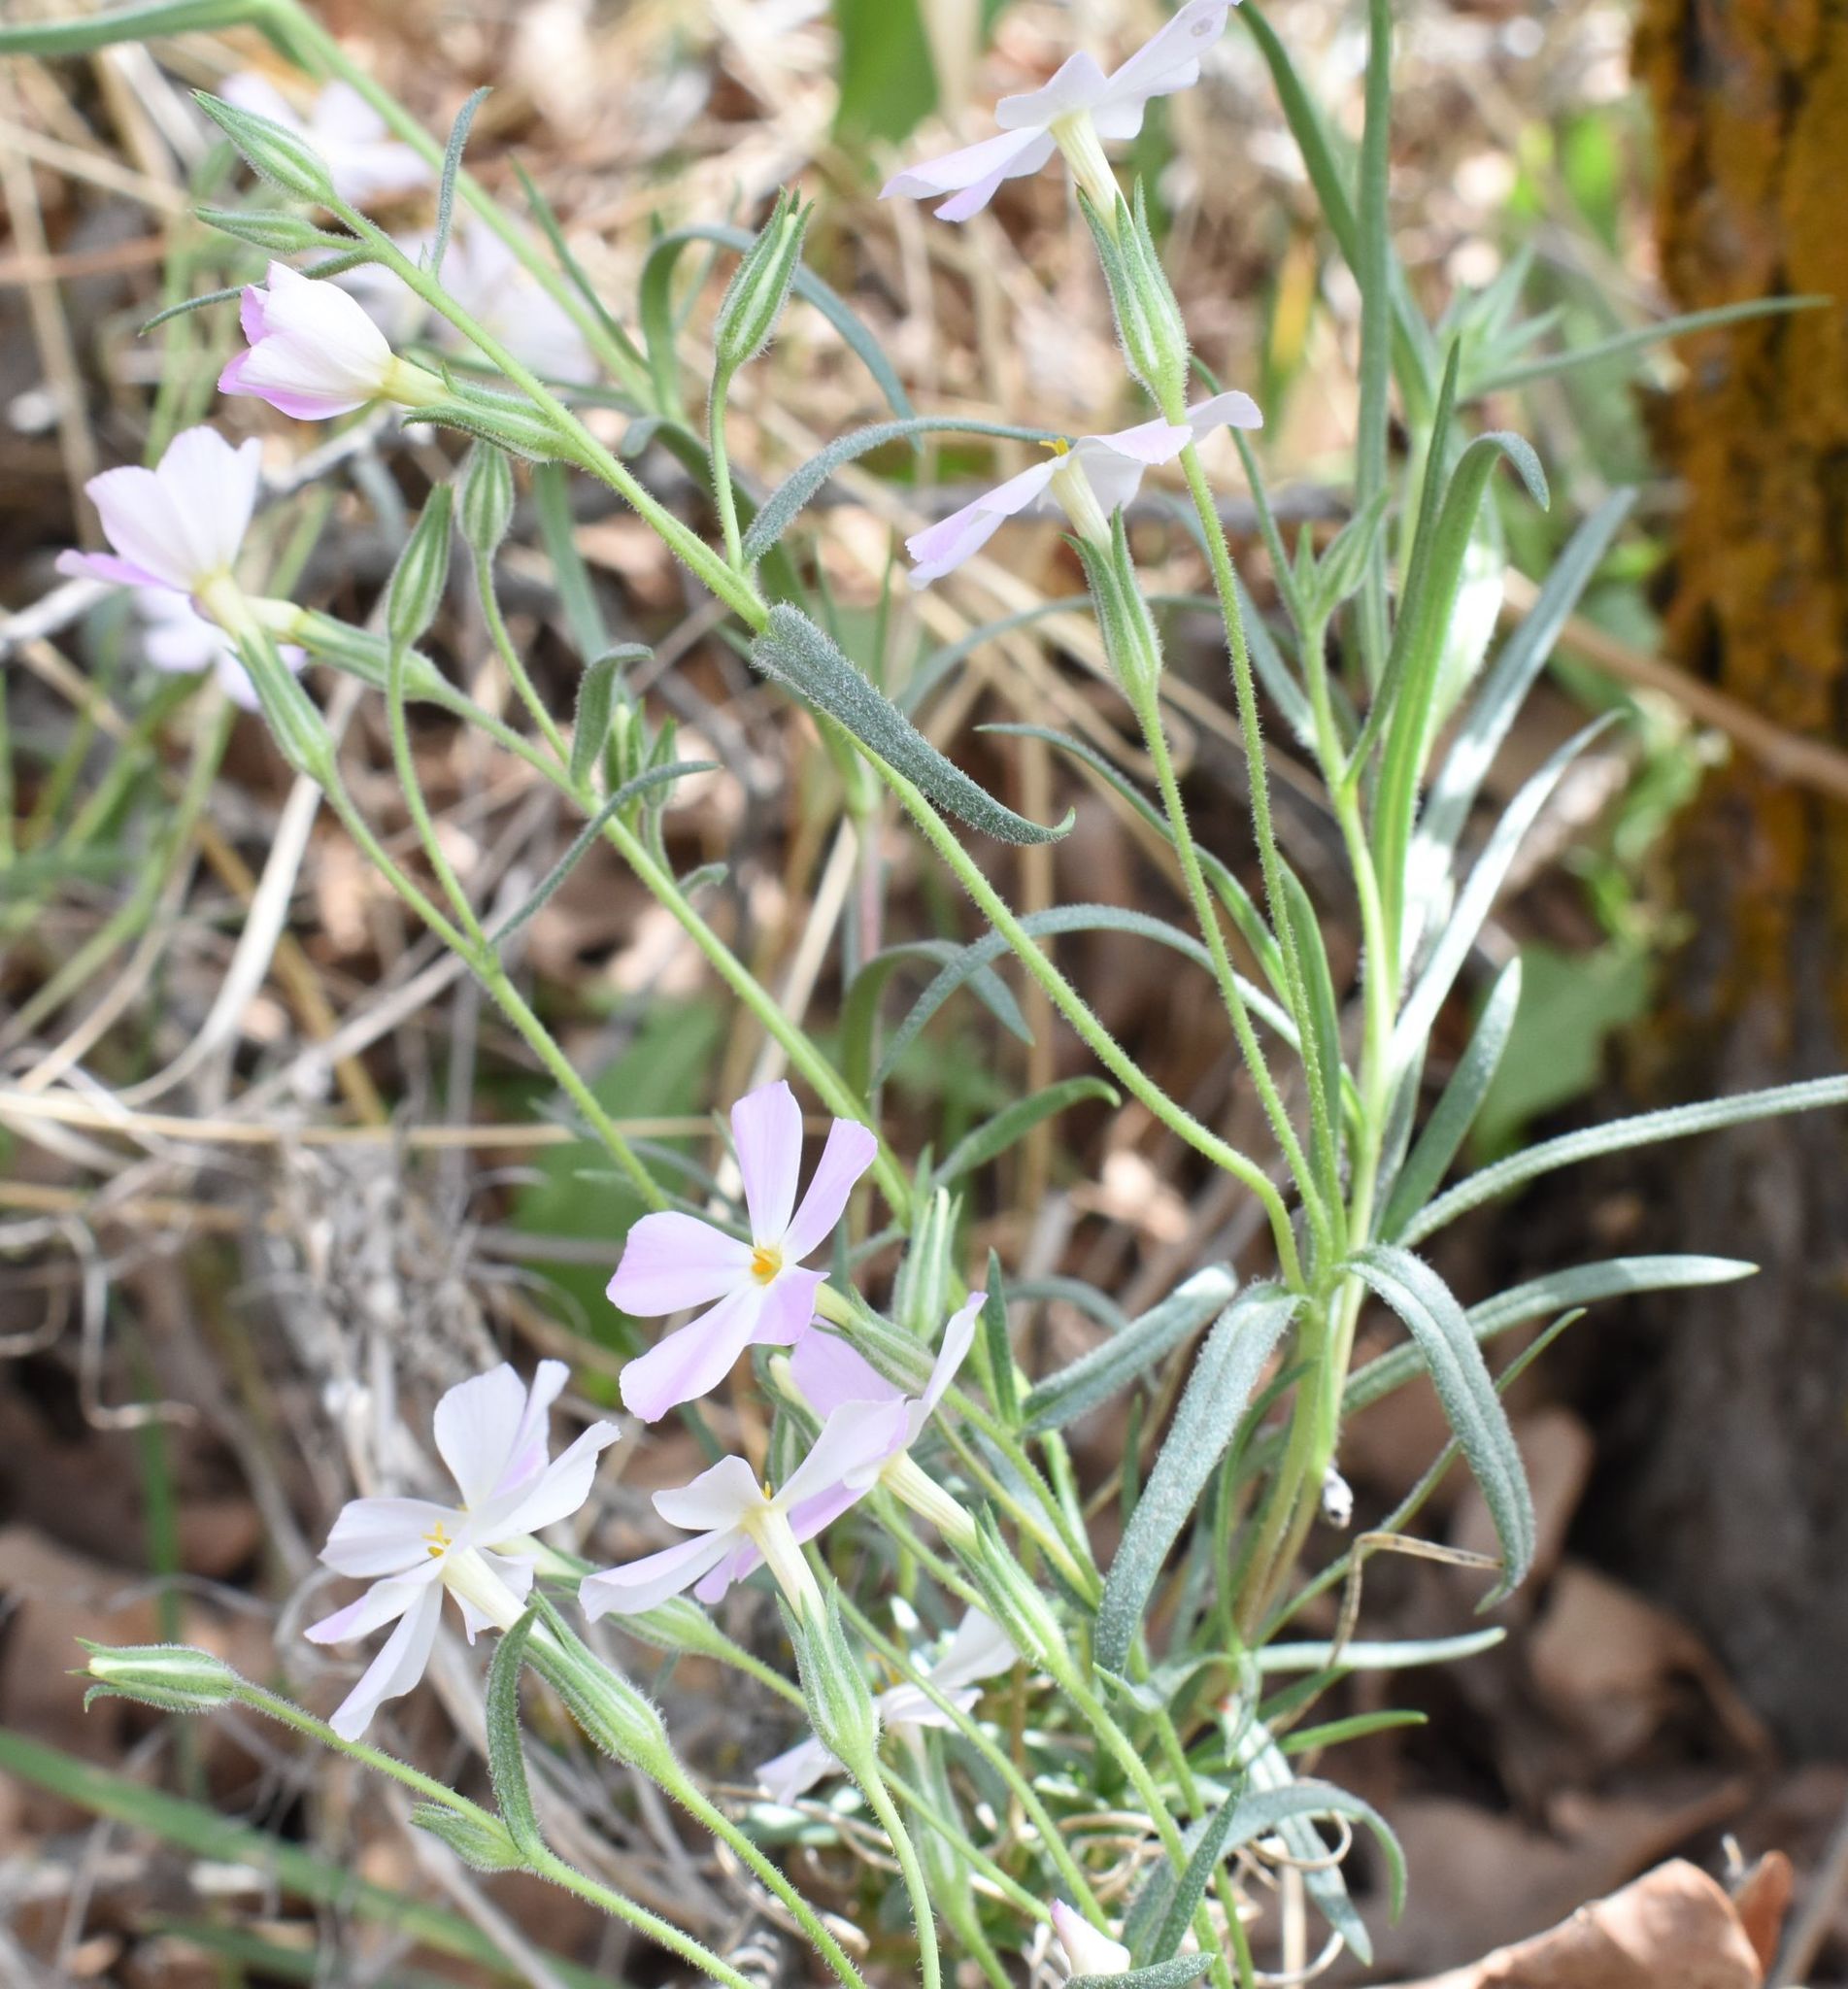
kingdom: Plantae
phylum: Tracheophyta
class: Magnoliopsida
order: Ericales
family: Polemoniaceae
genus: Phlox
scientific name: Phlox longifolia
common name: Longleaf phlox
